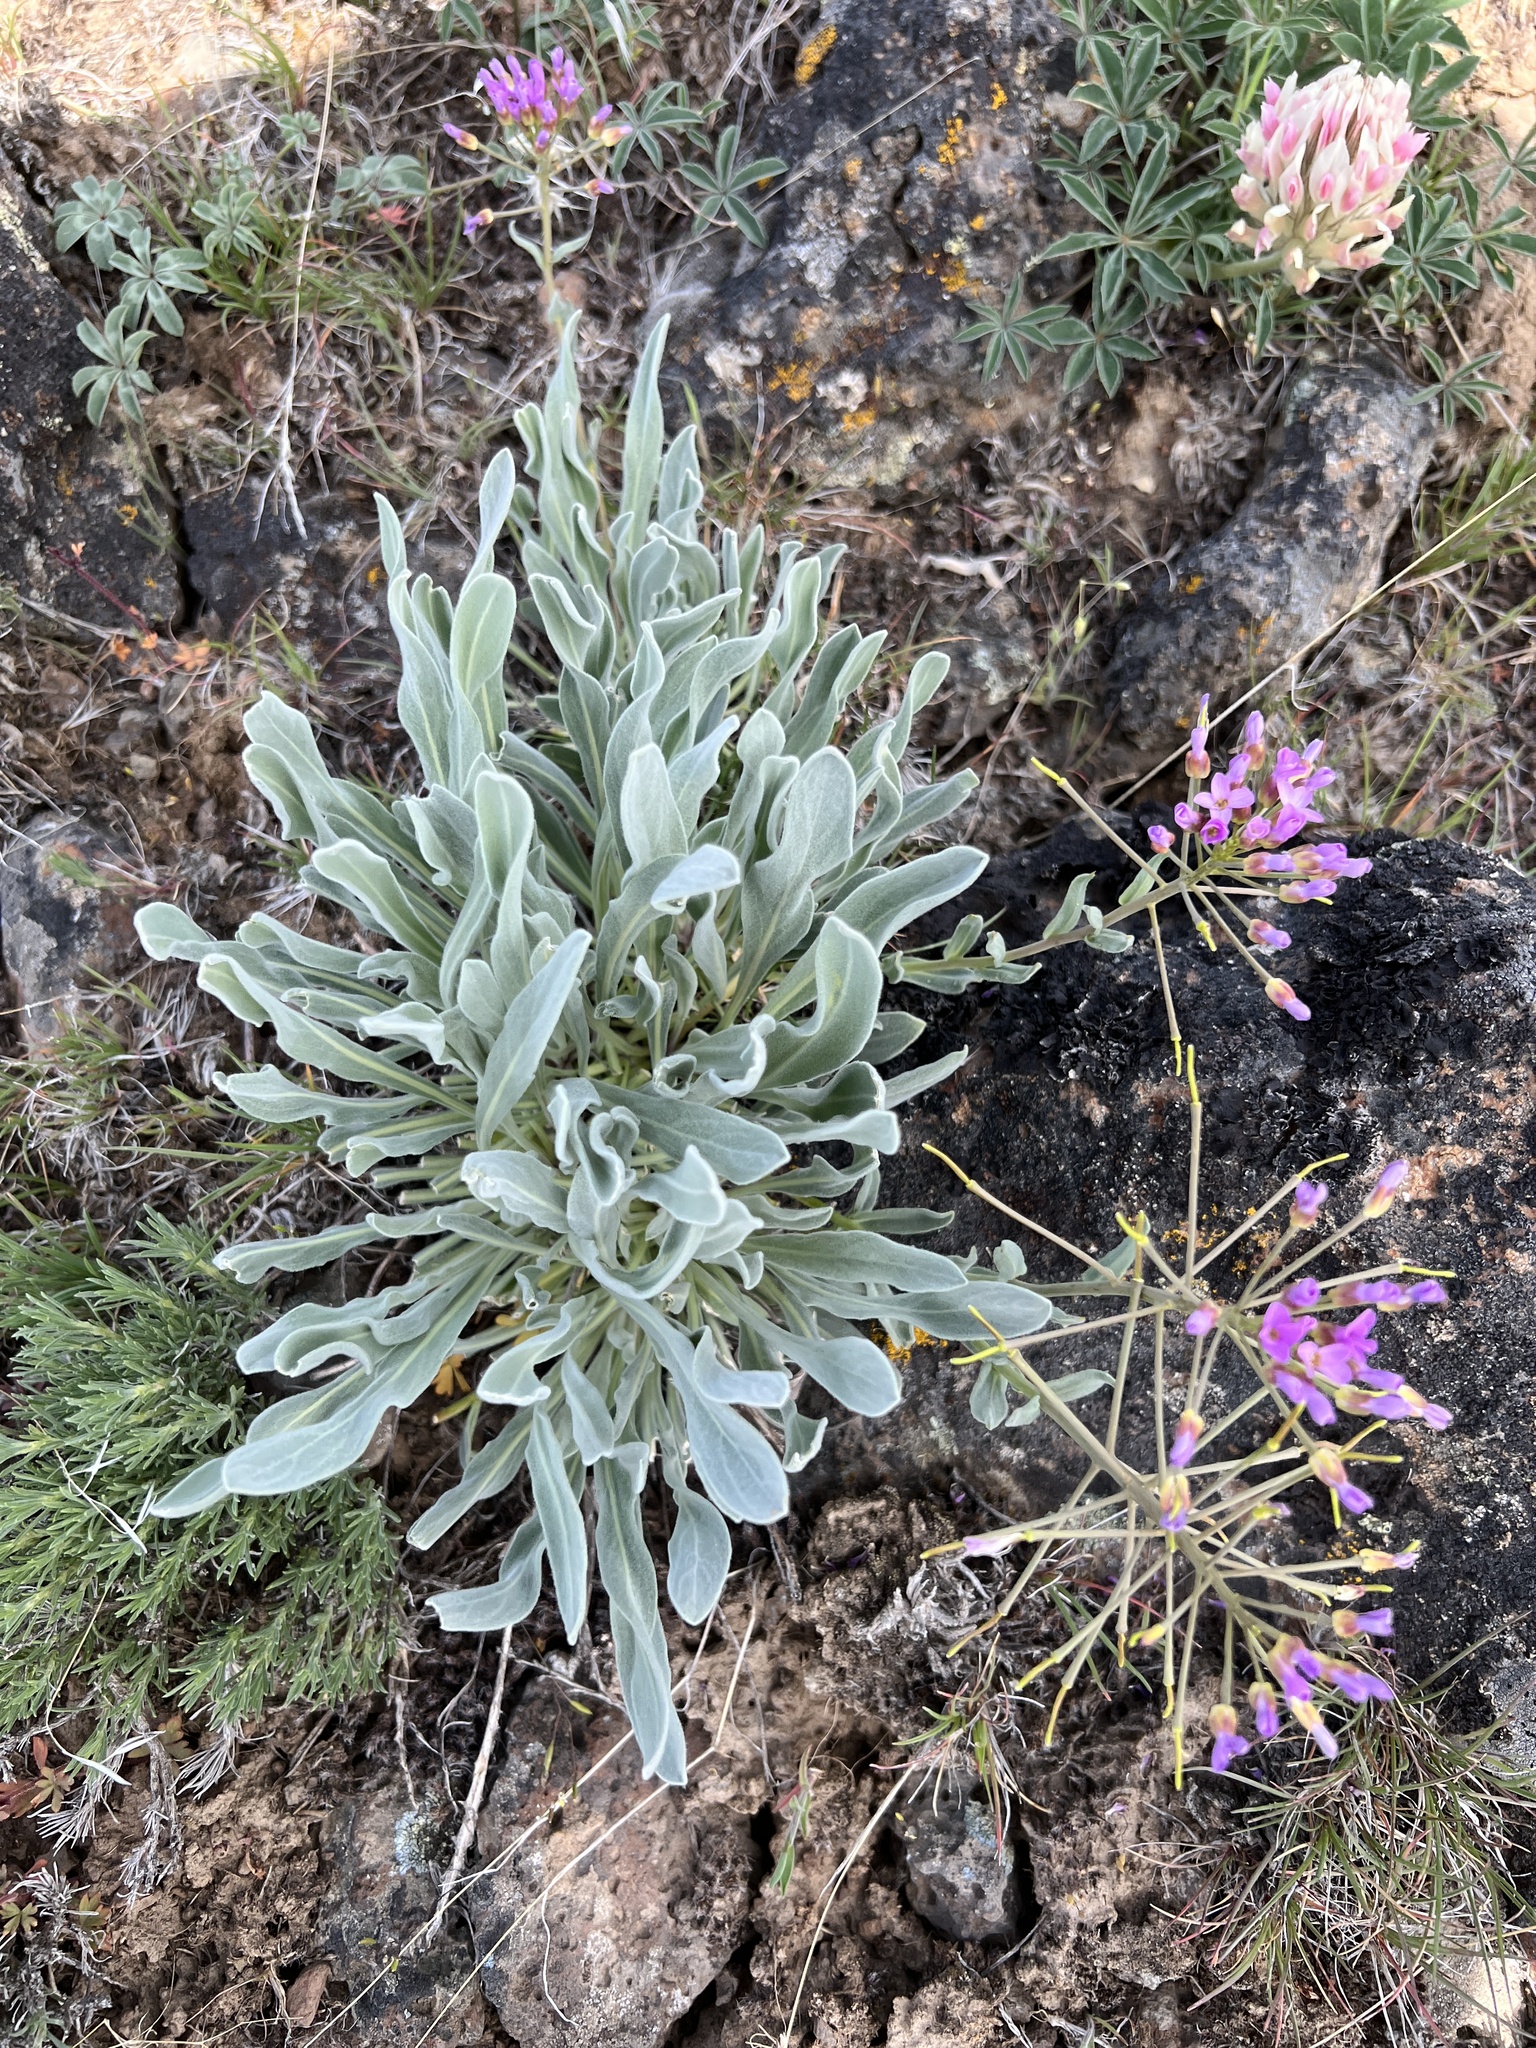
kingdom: Plantae
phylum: Tracheophyta
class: Magnoliopsida
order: Brassicales
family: Brassicaceae
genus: Phoenicaulis
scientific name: Phoenicaulis cheiranthoides
